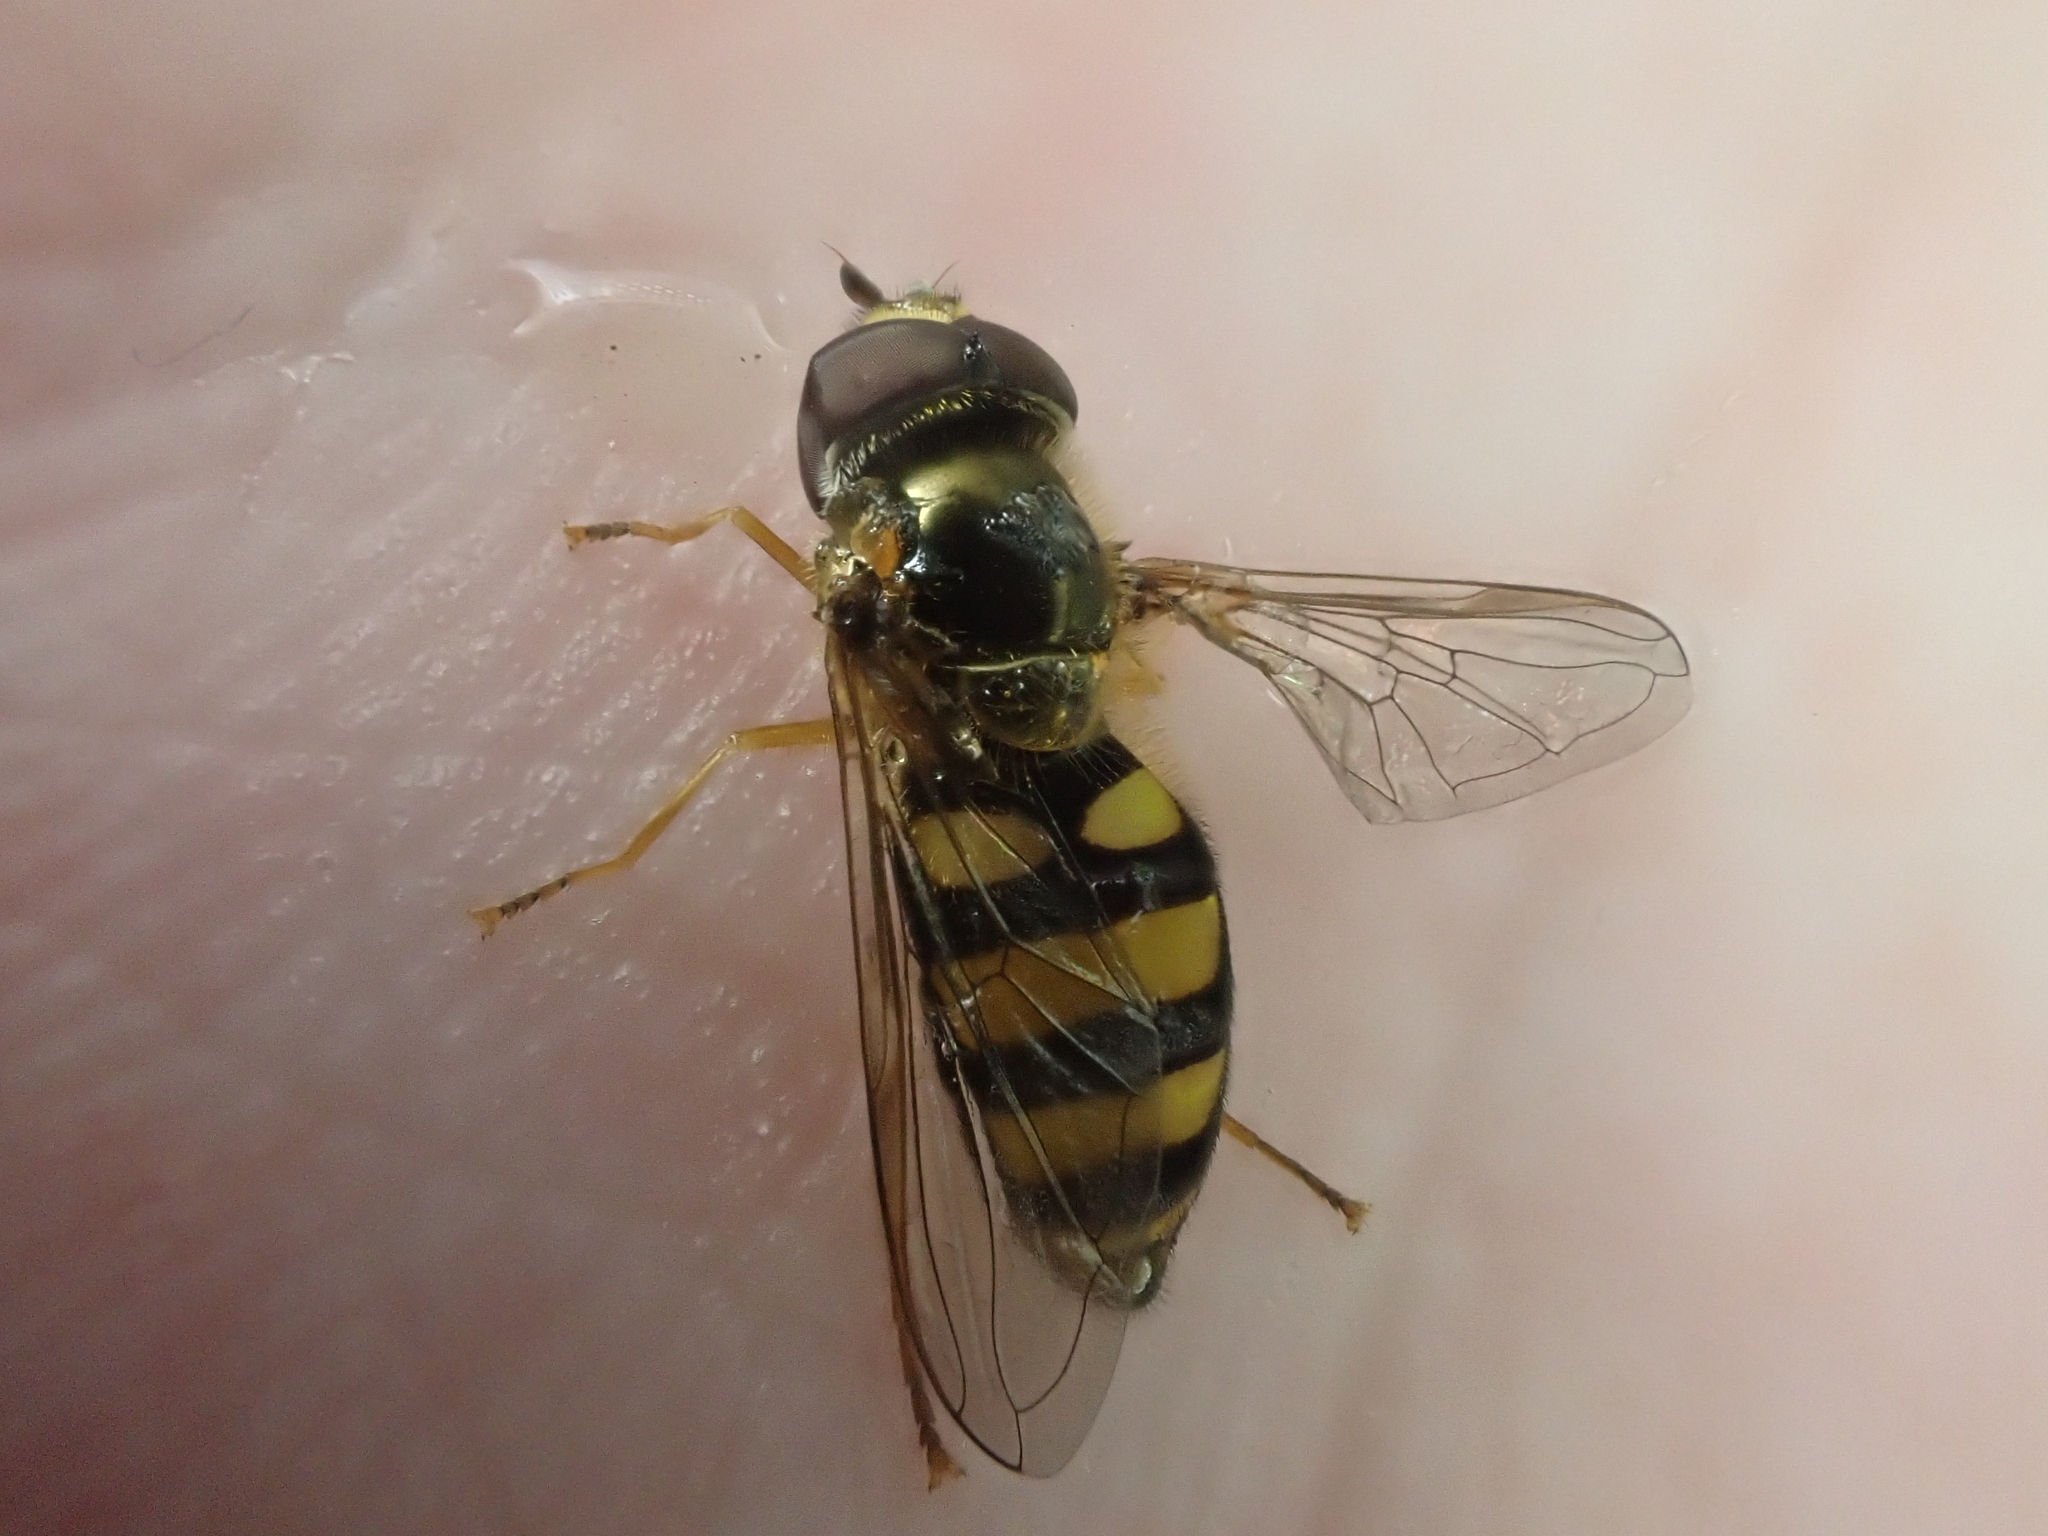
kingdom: Animalia
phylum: Arthropoda
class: Insecta
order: Diptera
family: Syrphidae
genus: Eupeodes
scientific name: Eupeodes
